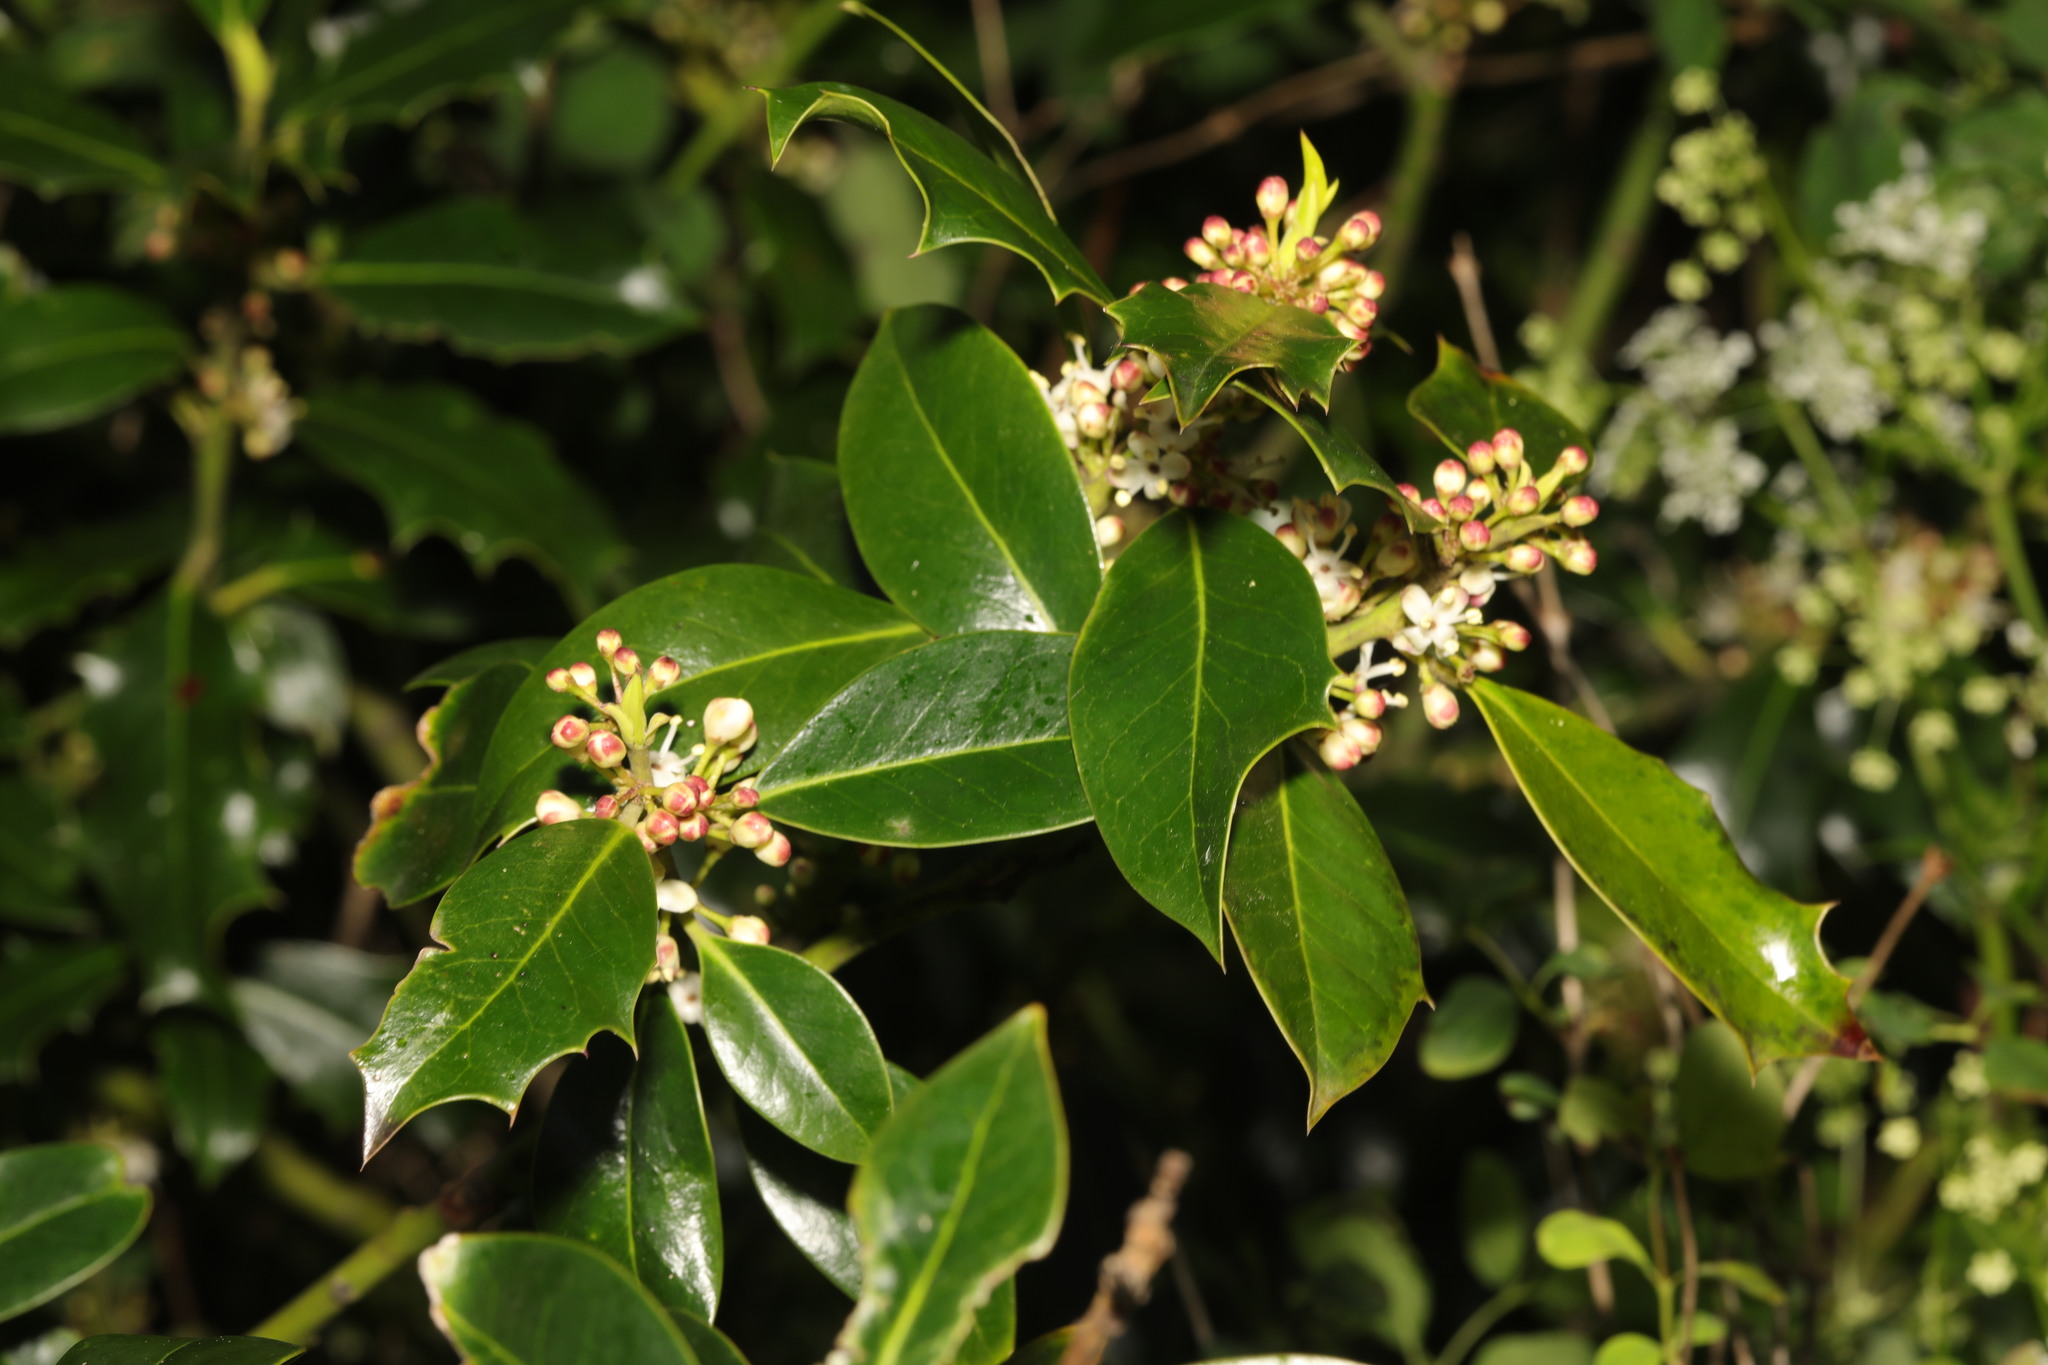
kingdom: Plantae
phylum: Tracheophyta
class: Magnoliopsida
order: Aquifoliales
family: Aquifoliaceae
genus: Ilex
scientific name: Ilex aquifolium
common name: English holly
